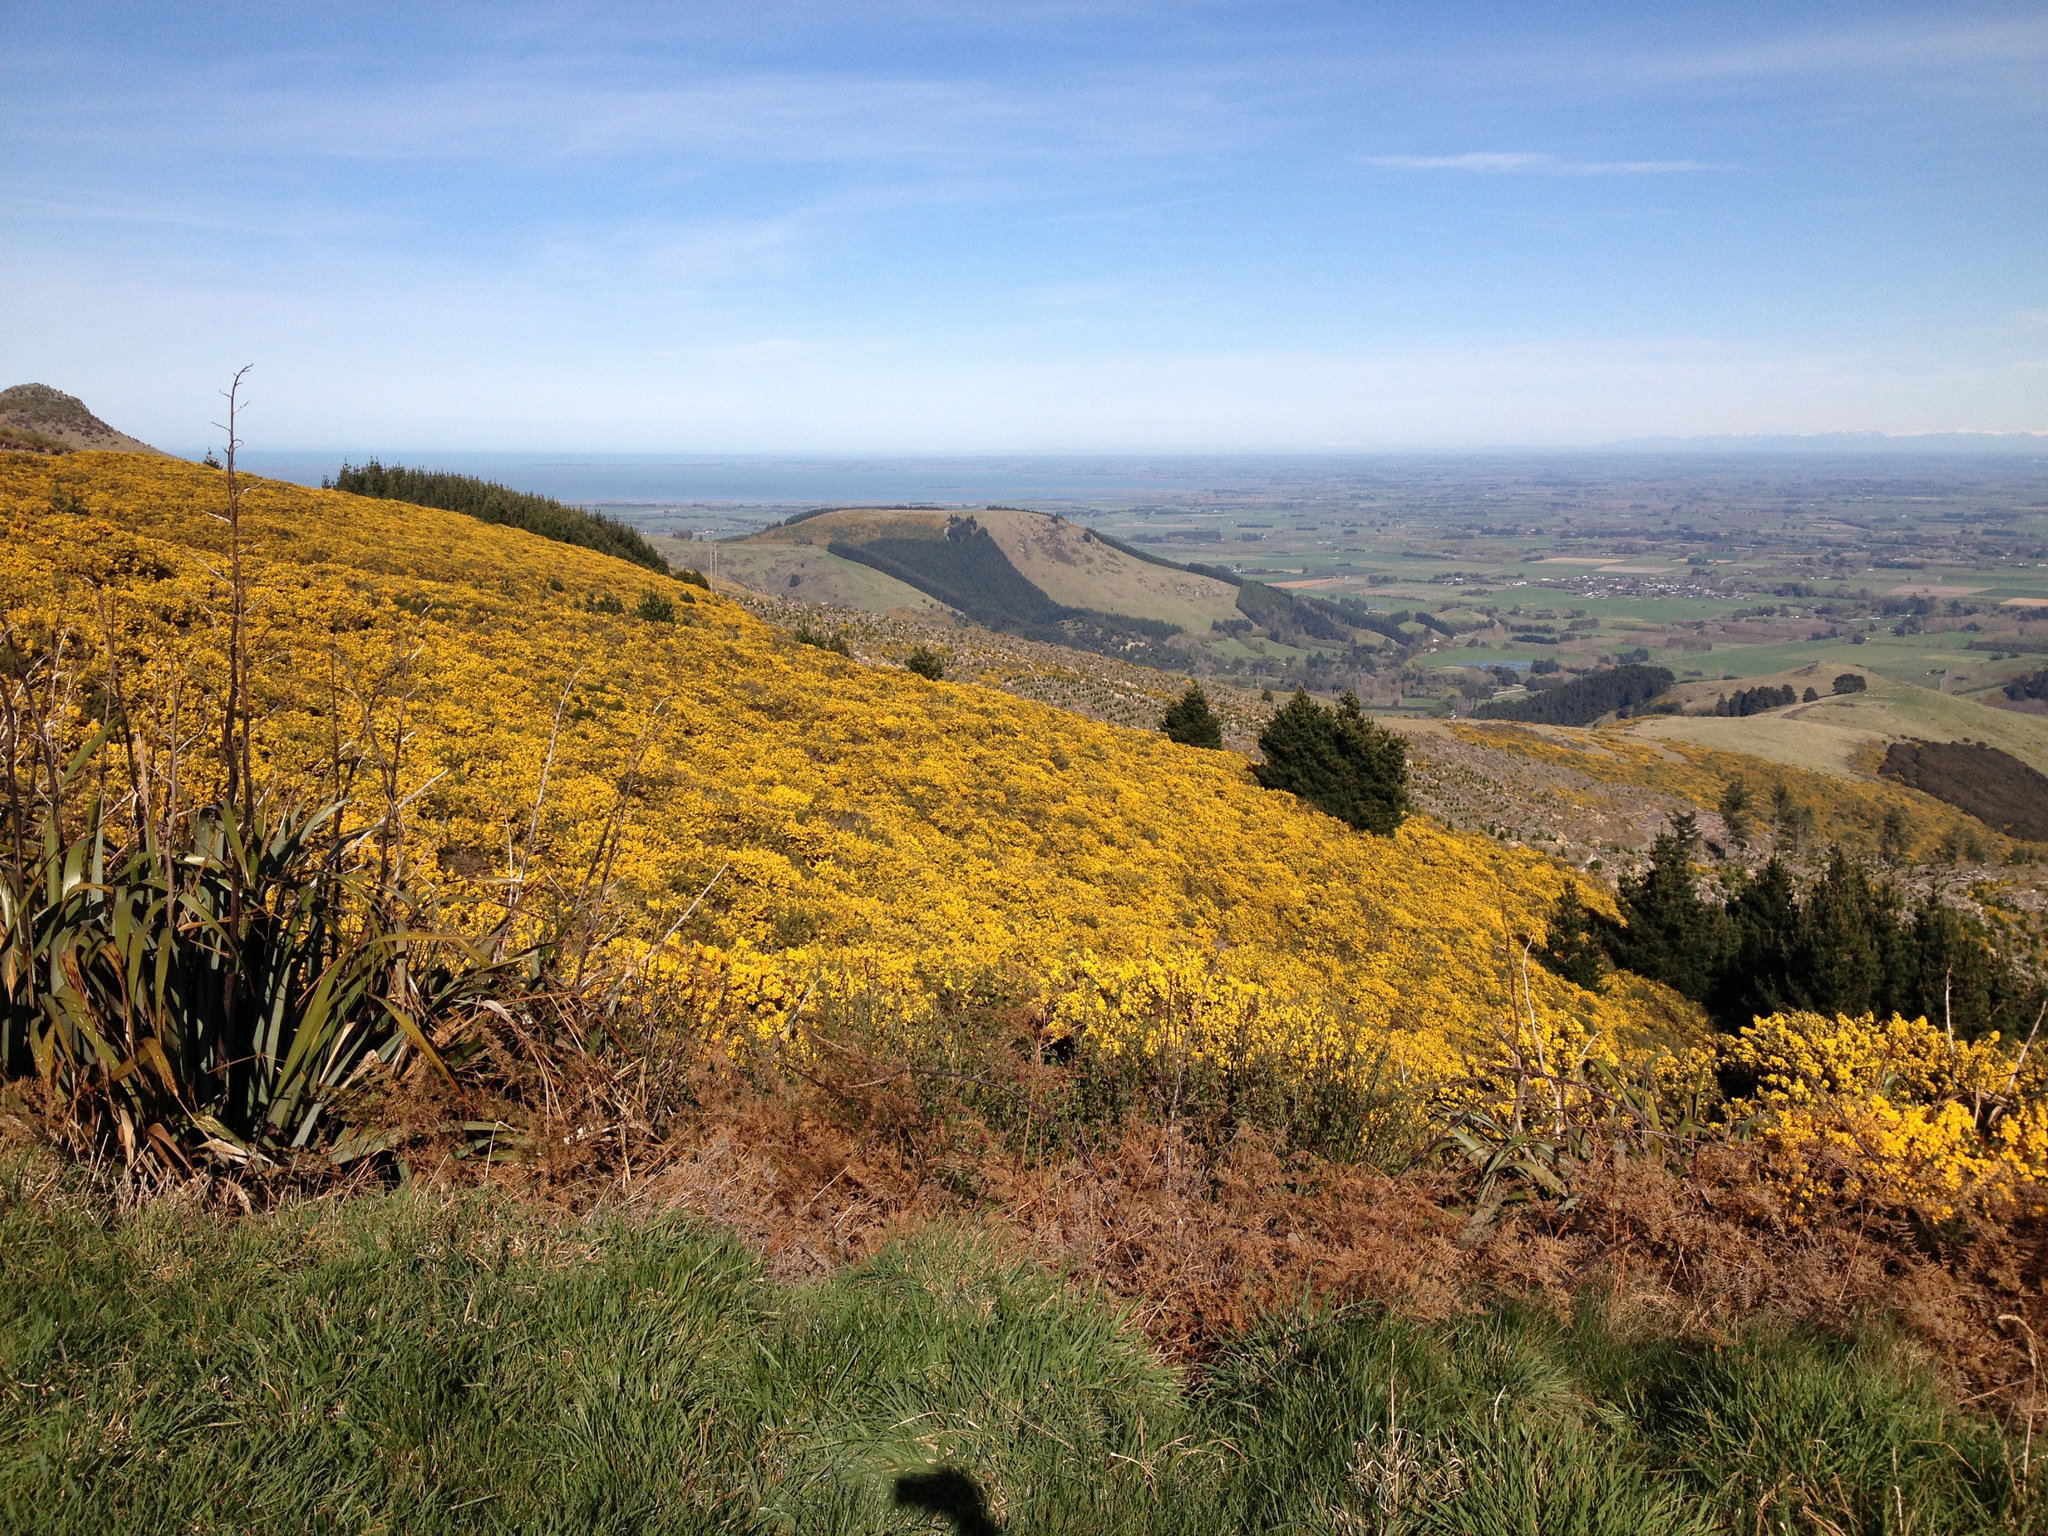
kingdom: Plantae
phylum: Tracheophyta
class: Magnoliopsida
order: Fabales
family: Fabaceae
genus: Ulex
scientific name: Ulex europaeus
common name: Common gorse
